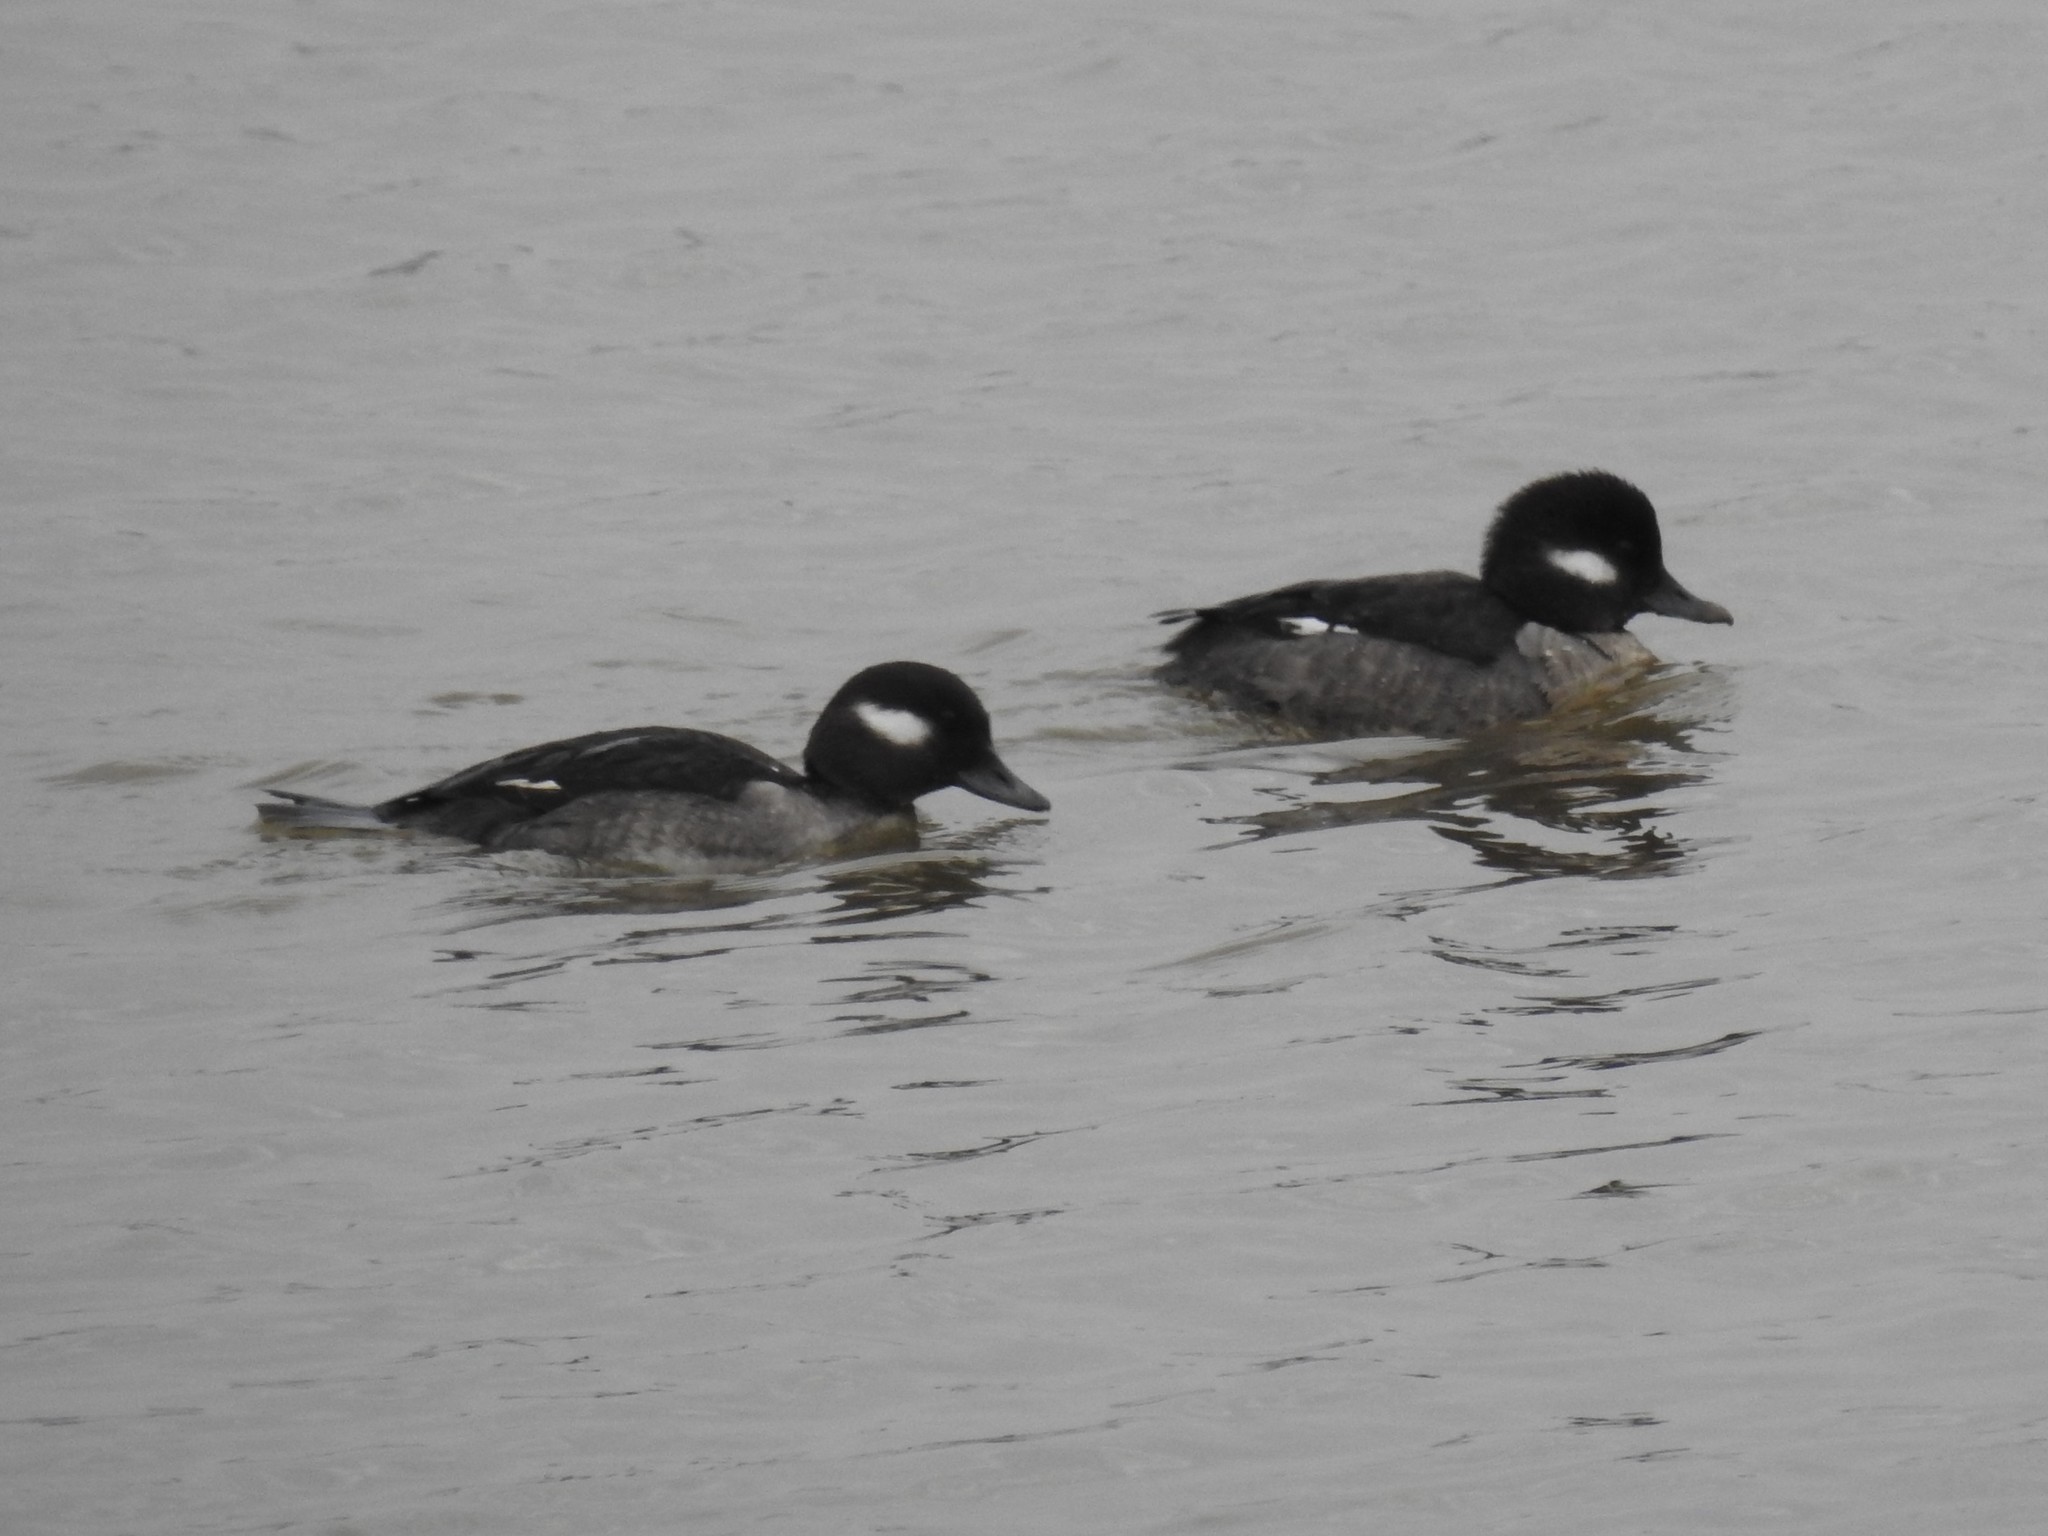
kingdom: Animalia
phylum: Chordata
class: Aves
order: Anseriformes
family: Anatidae
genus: Bucephala
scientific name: Bucephala albeola
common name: Bufflehead
